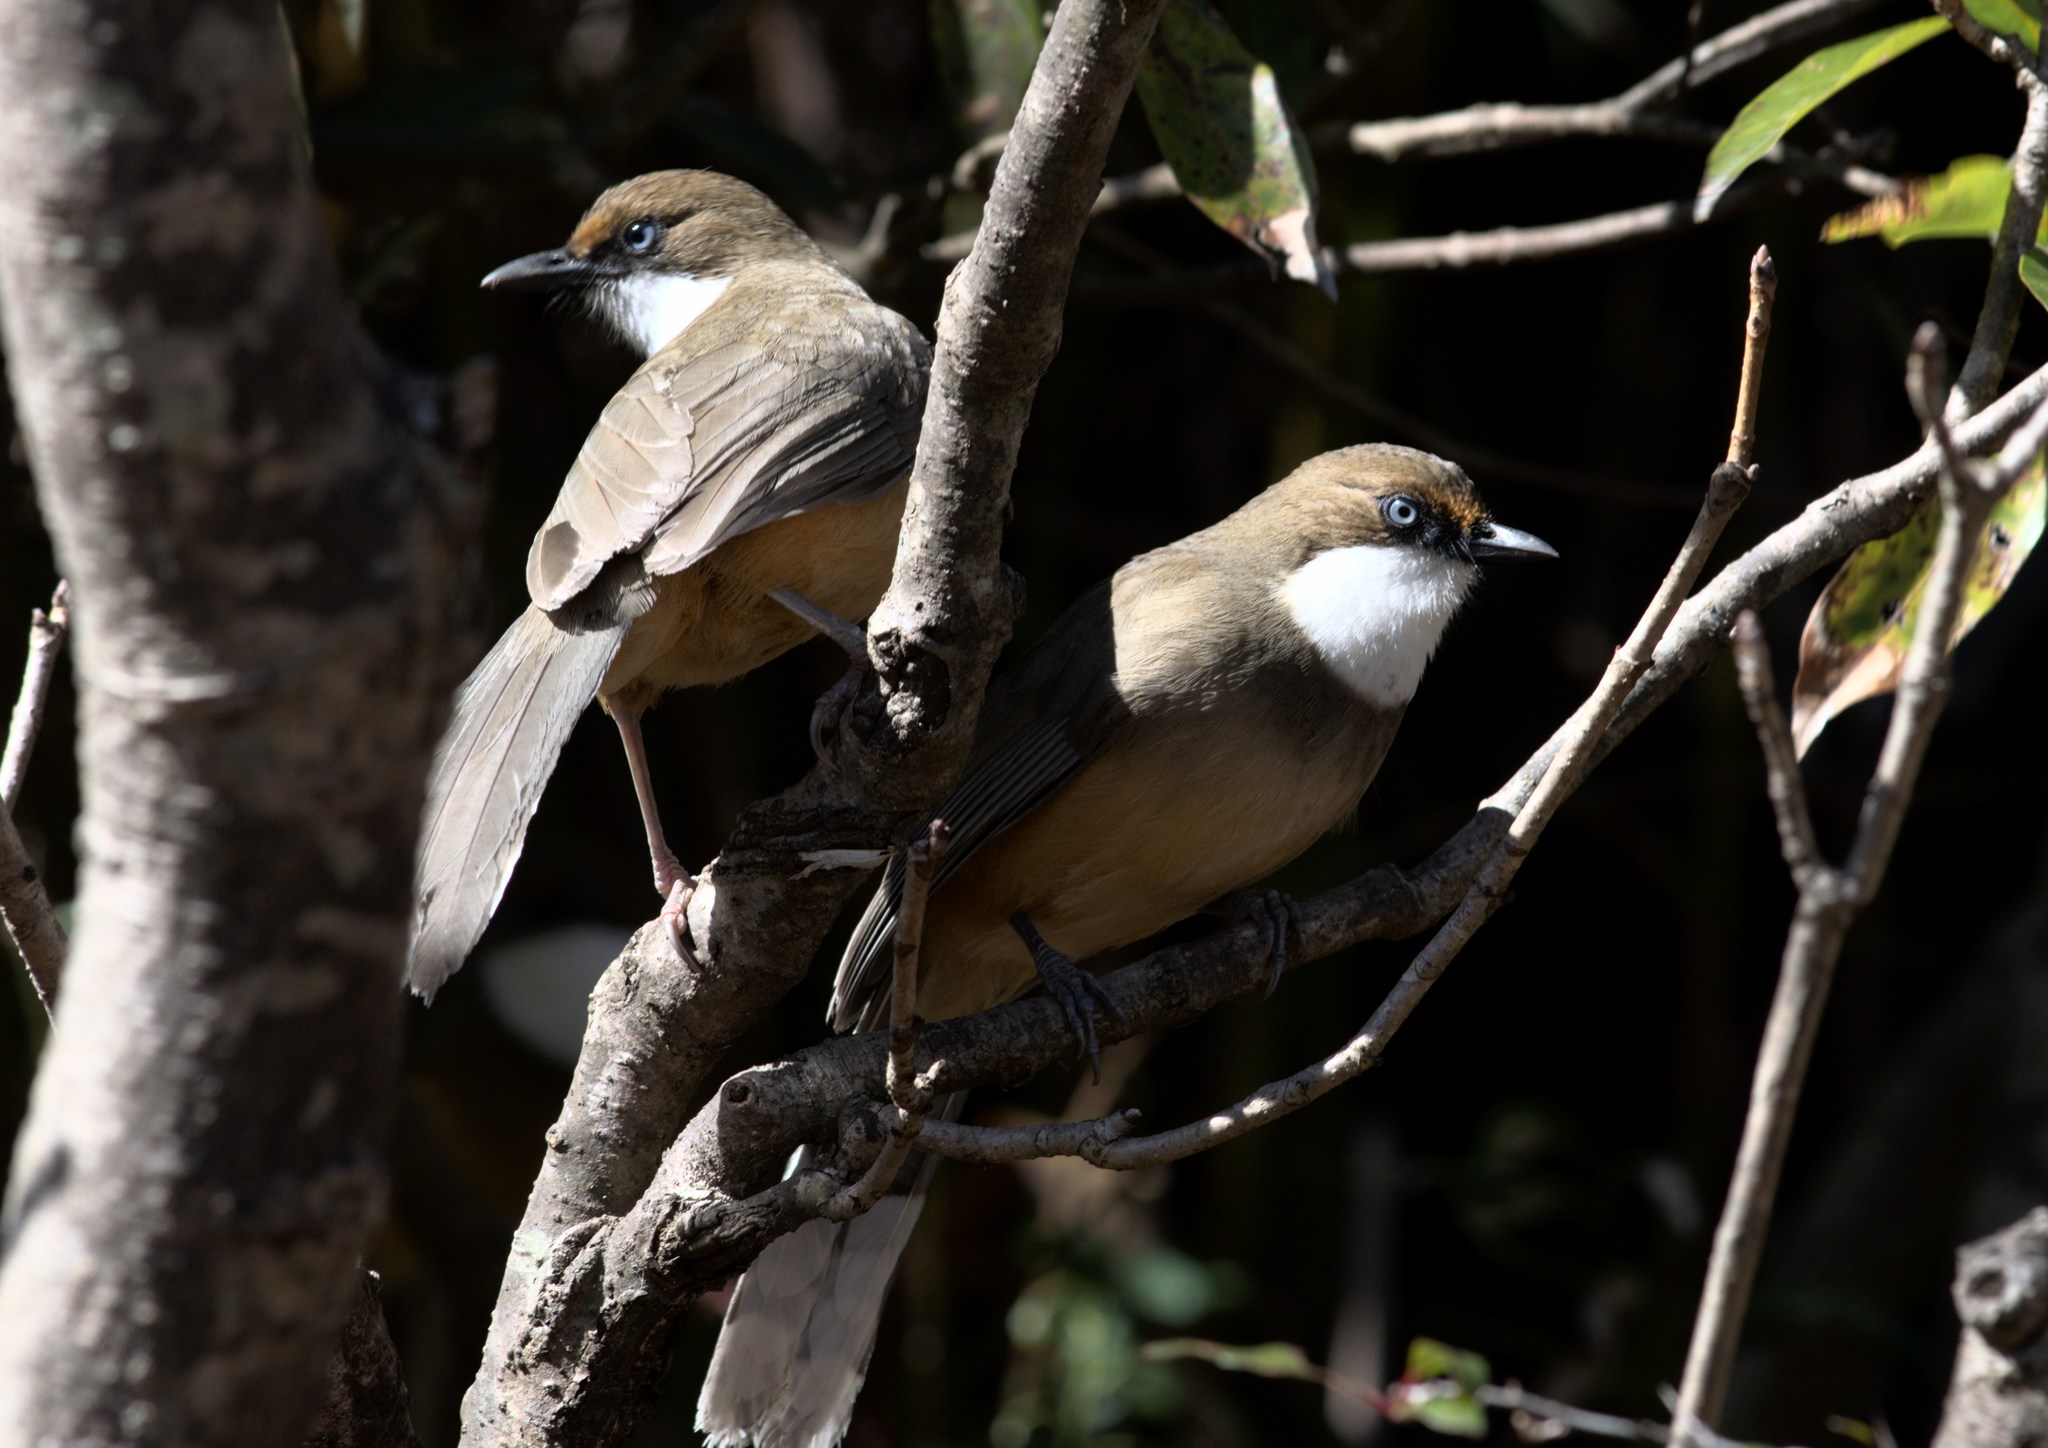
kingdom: Animalia
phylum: Chordata
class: Aves
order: Passeriformes
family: Leiothrichidae
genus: Garrulax
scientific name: Garrulax albogularis
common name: White-throated laughingthrush
